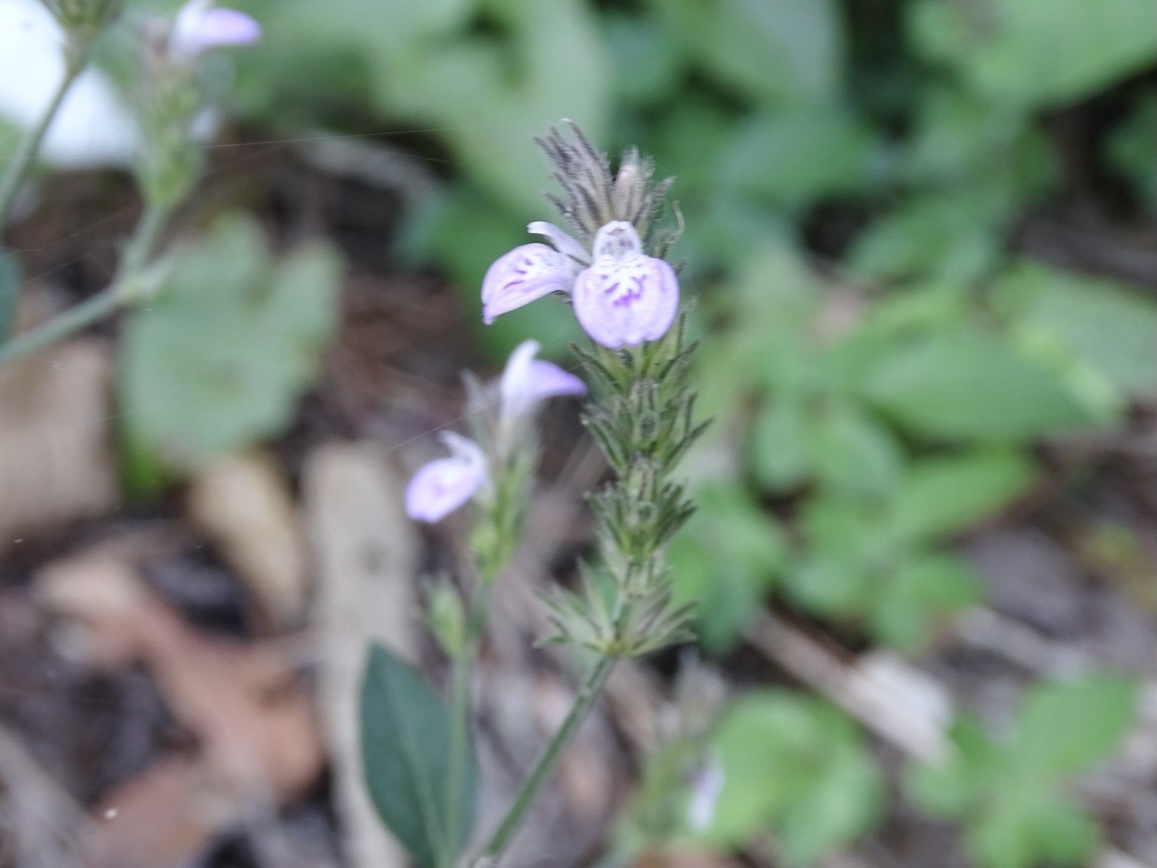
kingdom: Plantae
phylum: Tracheophyta
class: Magnoliopsida
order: Lamiales
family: Acanthaceae
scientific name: Acanthaceae
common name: Acanthaceae
